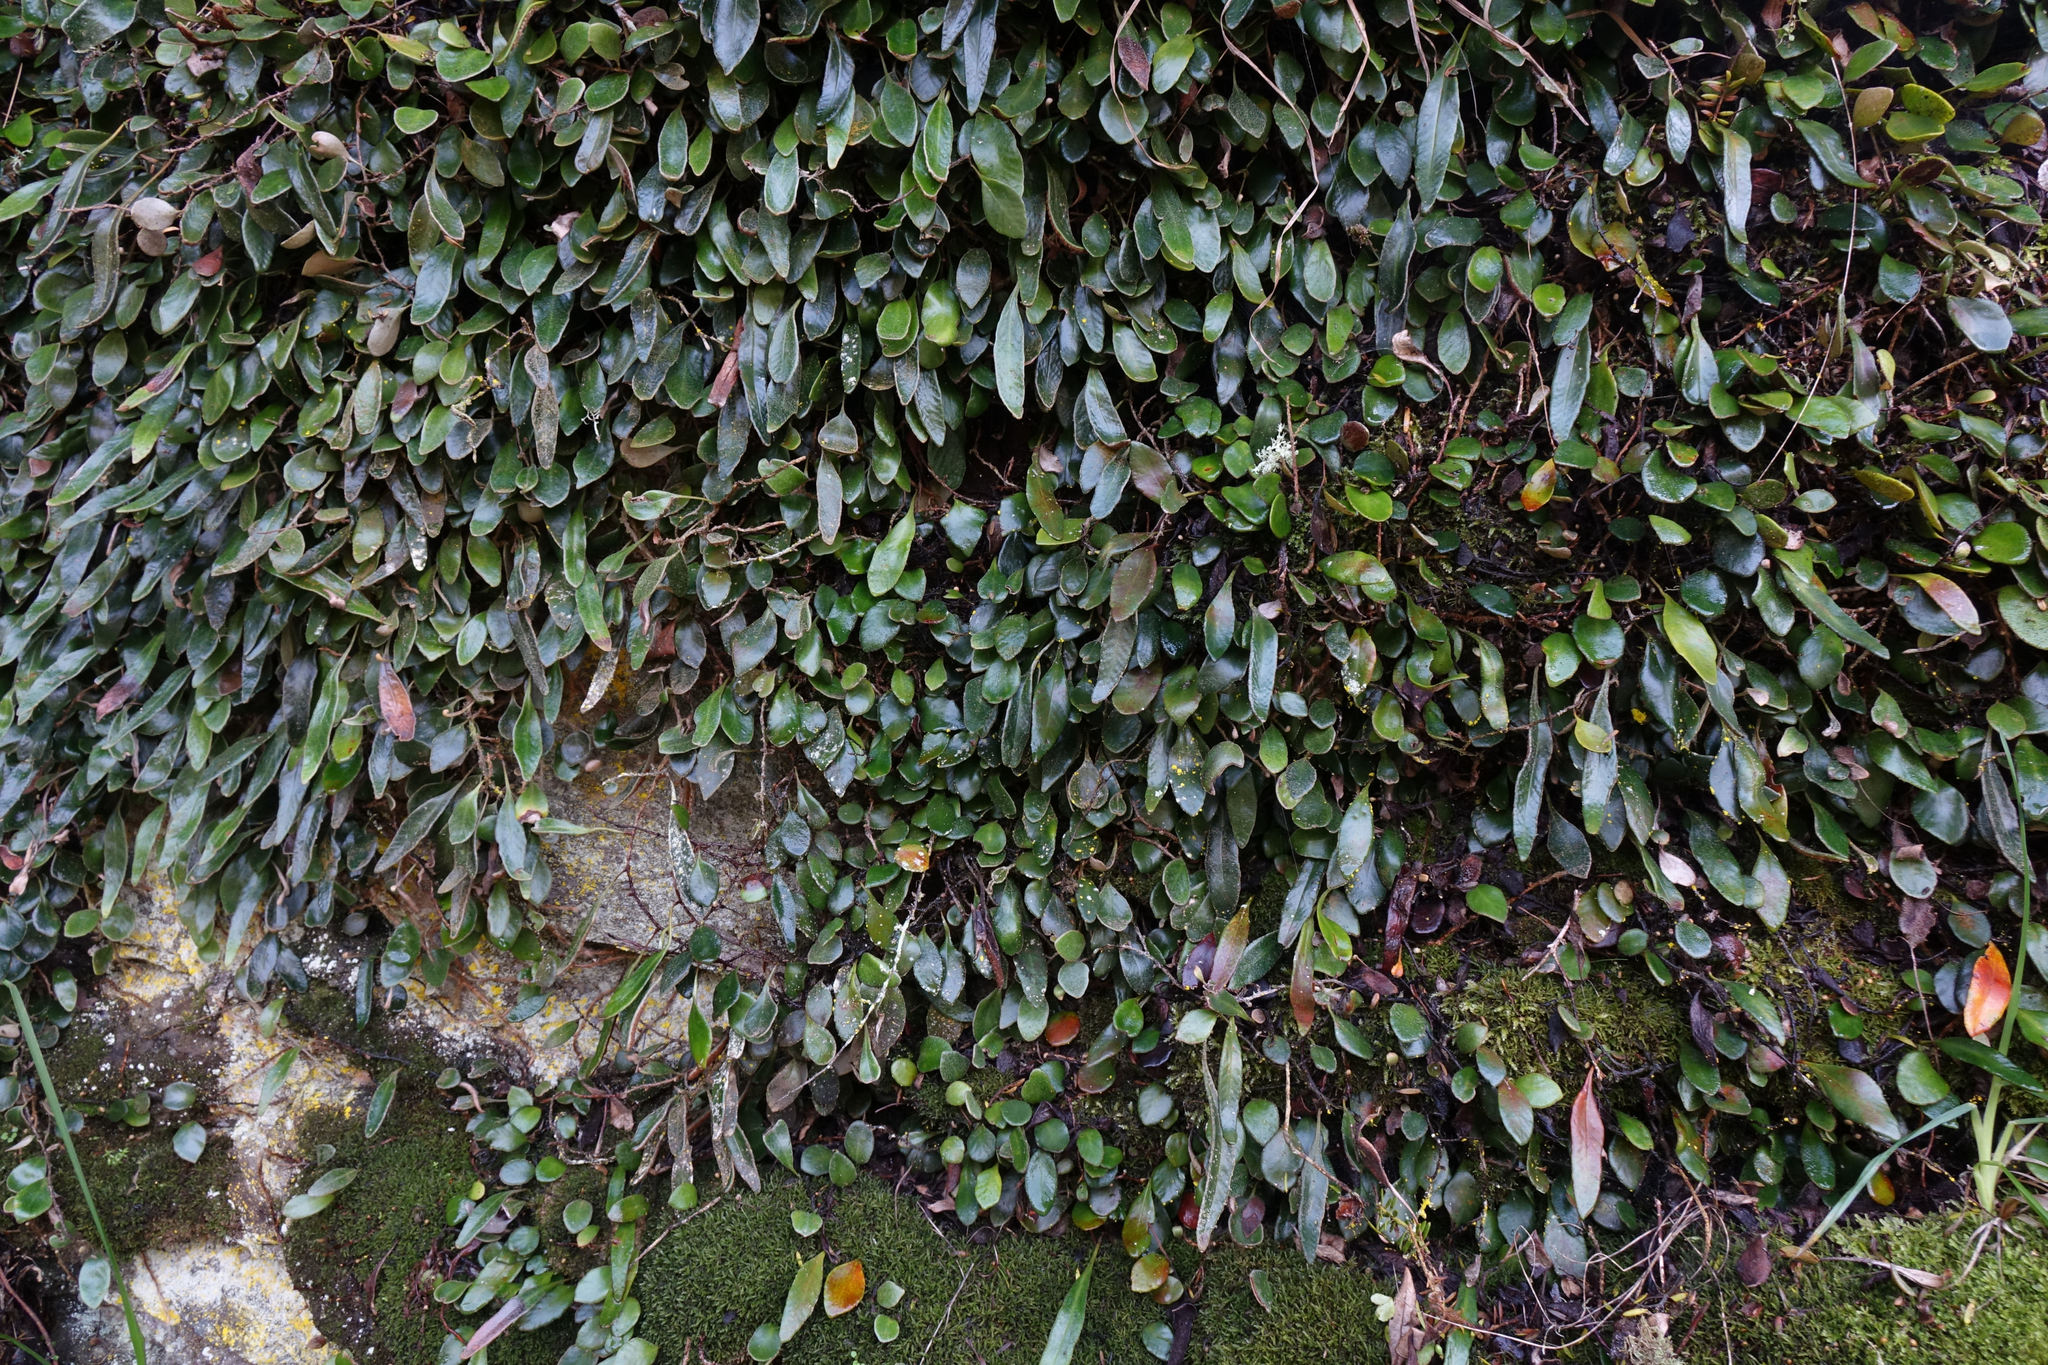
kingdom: Plantae
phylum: Tracheophyta
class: Polypodiopsida
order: Polypodiales
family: Polypodiaceae
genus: Pyrrosia
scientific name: Pyrrosia eleagnifolia
